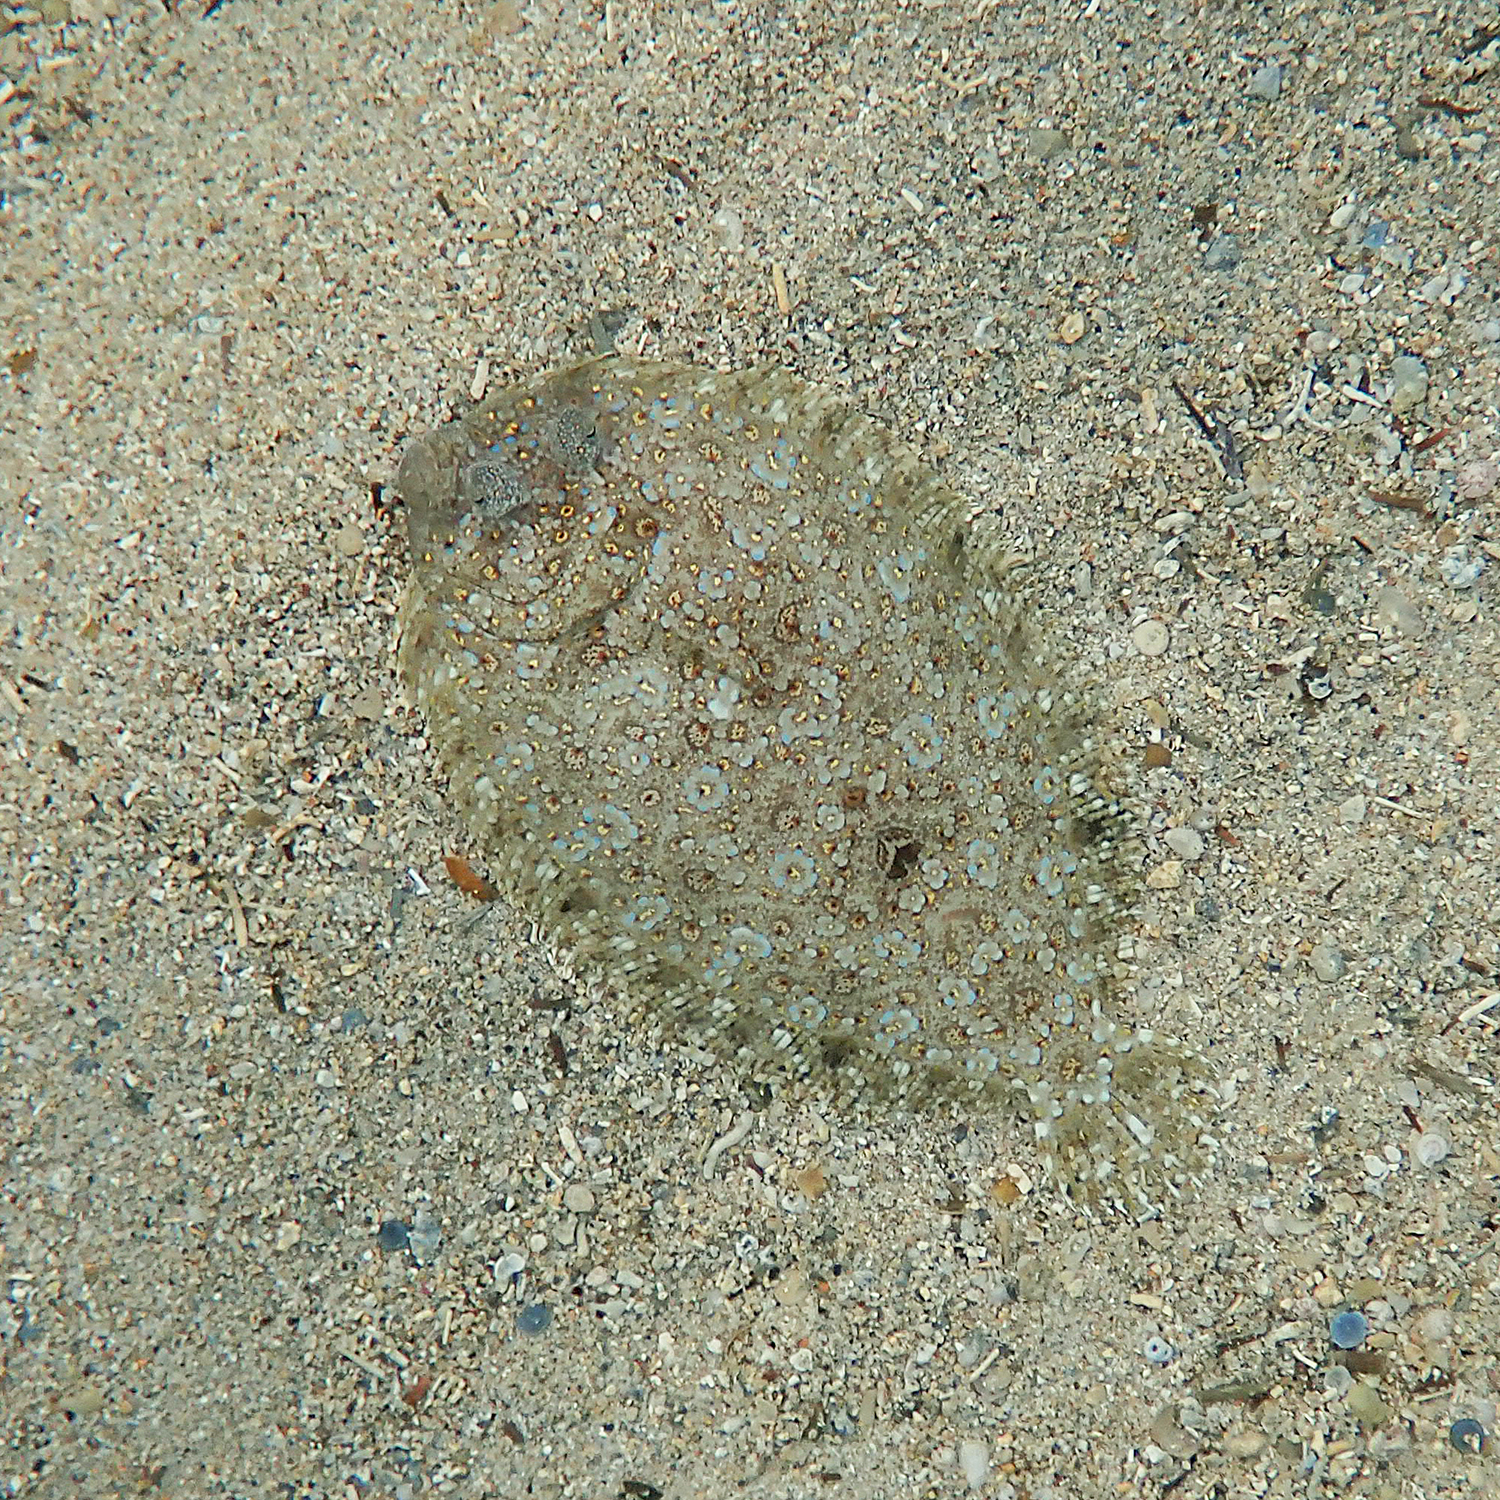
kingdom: Animalia
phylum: Chordata
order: Pleuronectiformes
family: Bothidae
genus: Bothus
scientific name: Bothus pantherinus
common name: Leopard flounder
